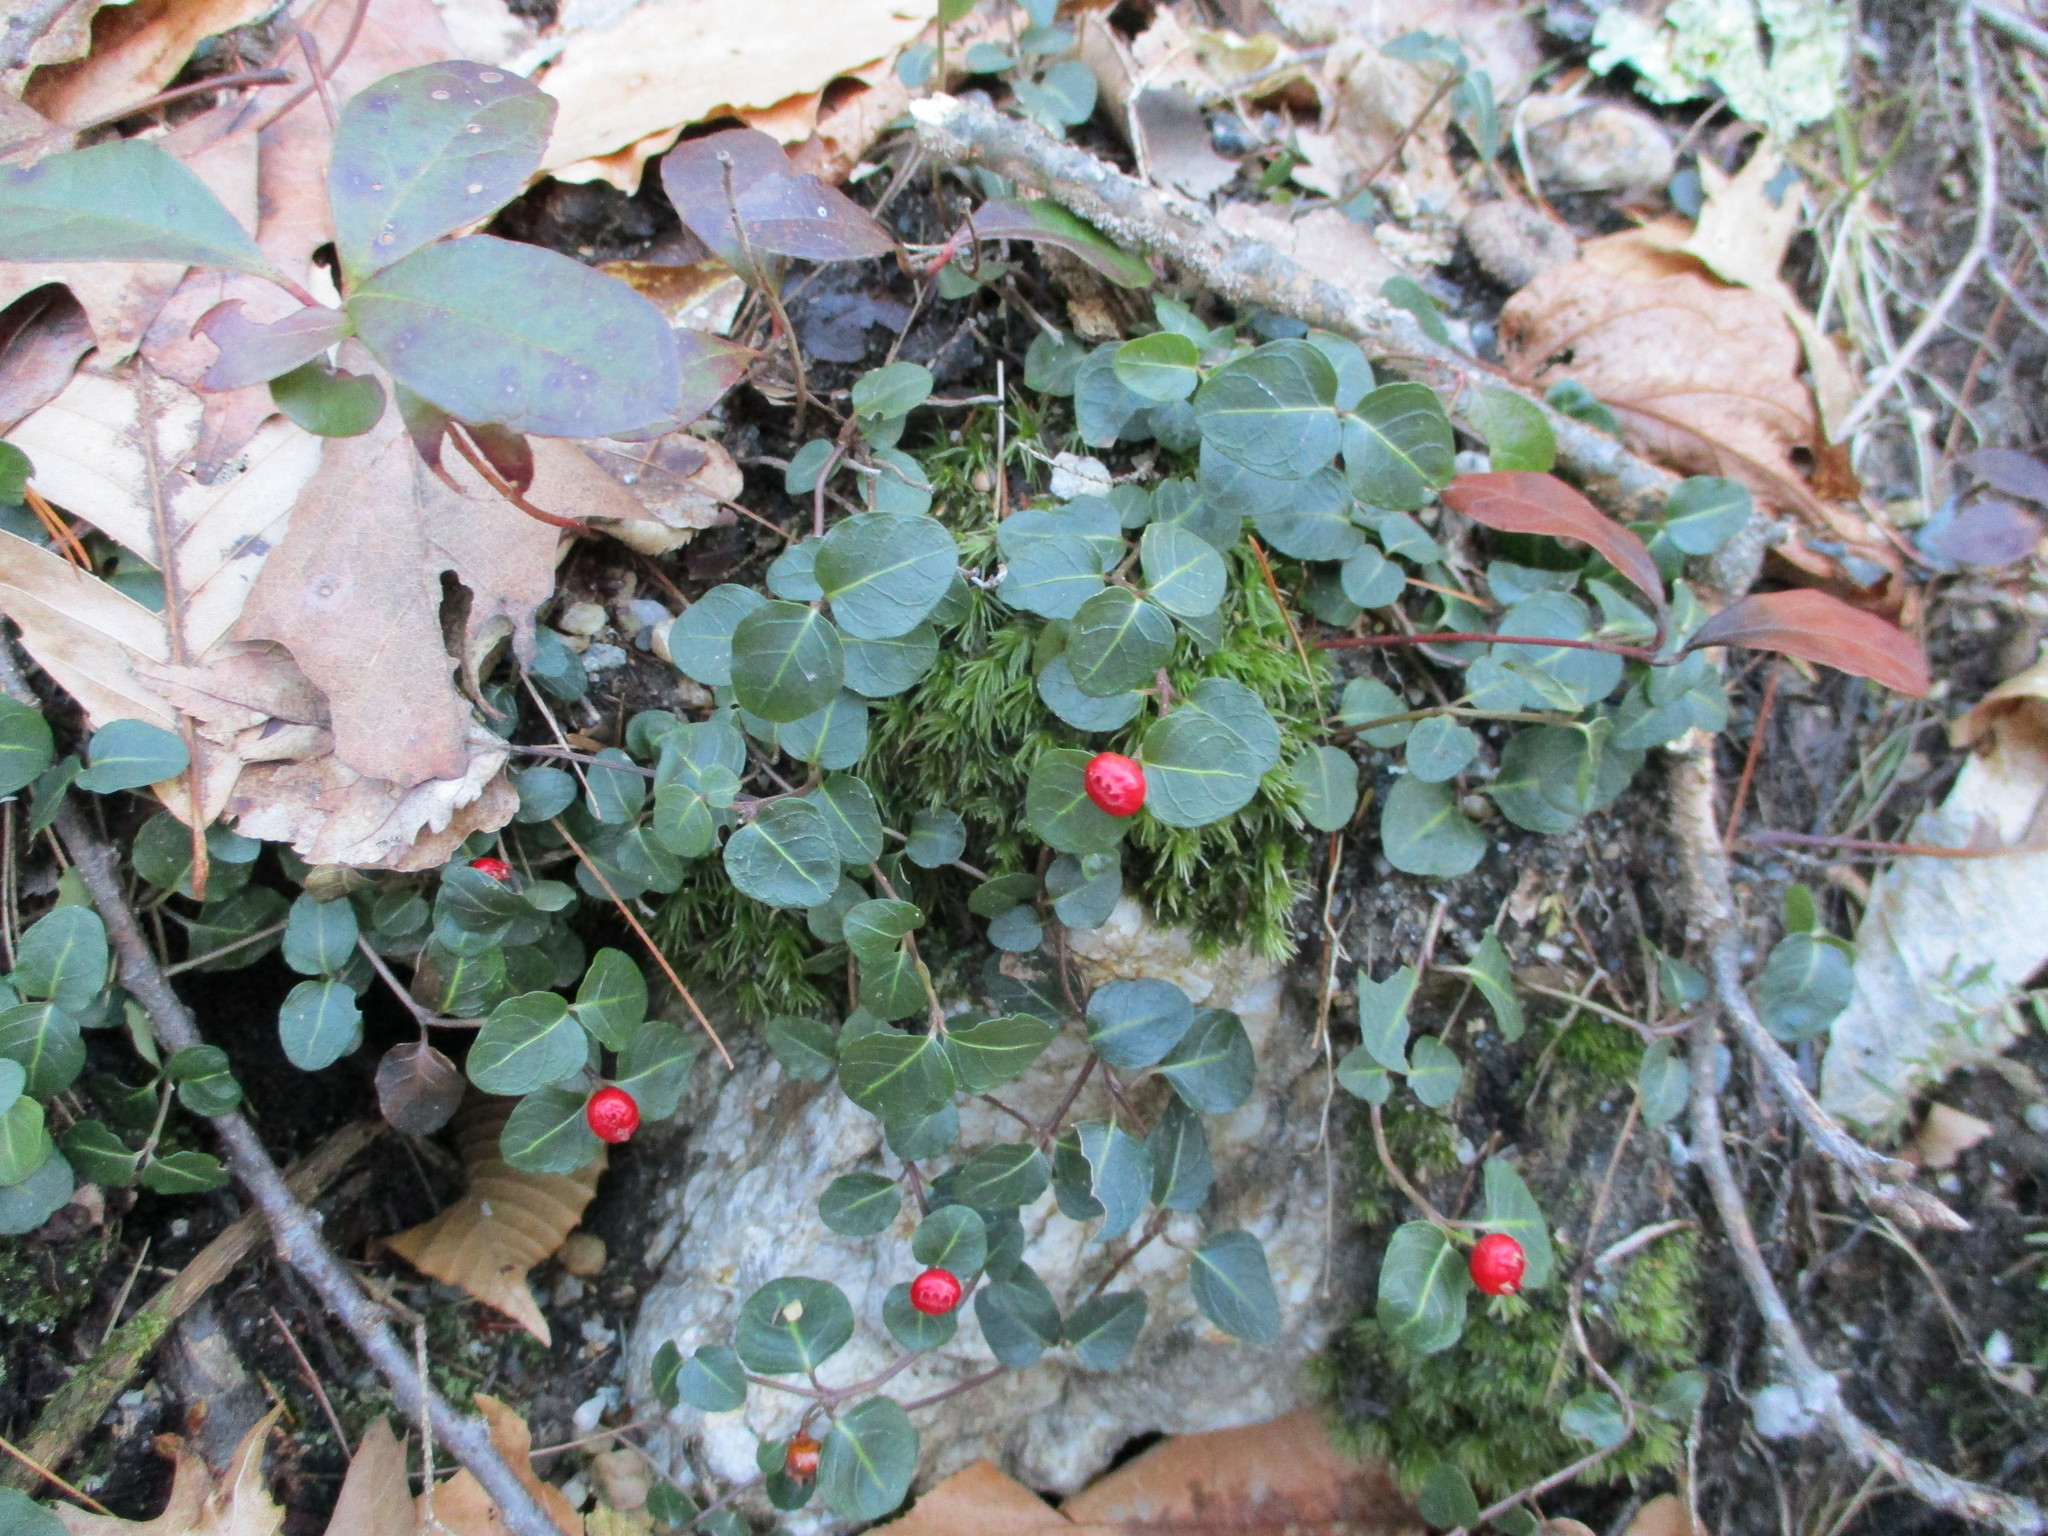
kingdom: Plantae
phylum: Tracheophyta
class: Magnoliopsida
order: Gentianales
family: Rubiaceae
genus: Mitchella
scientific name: Mitchella repens
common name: Partridge-berry
